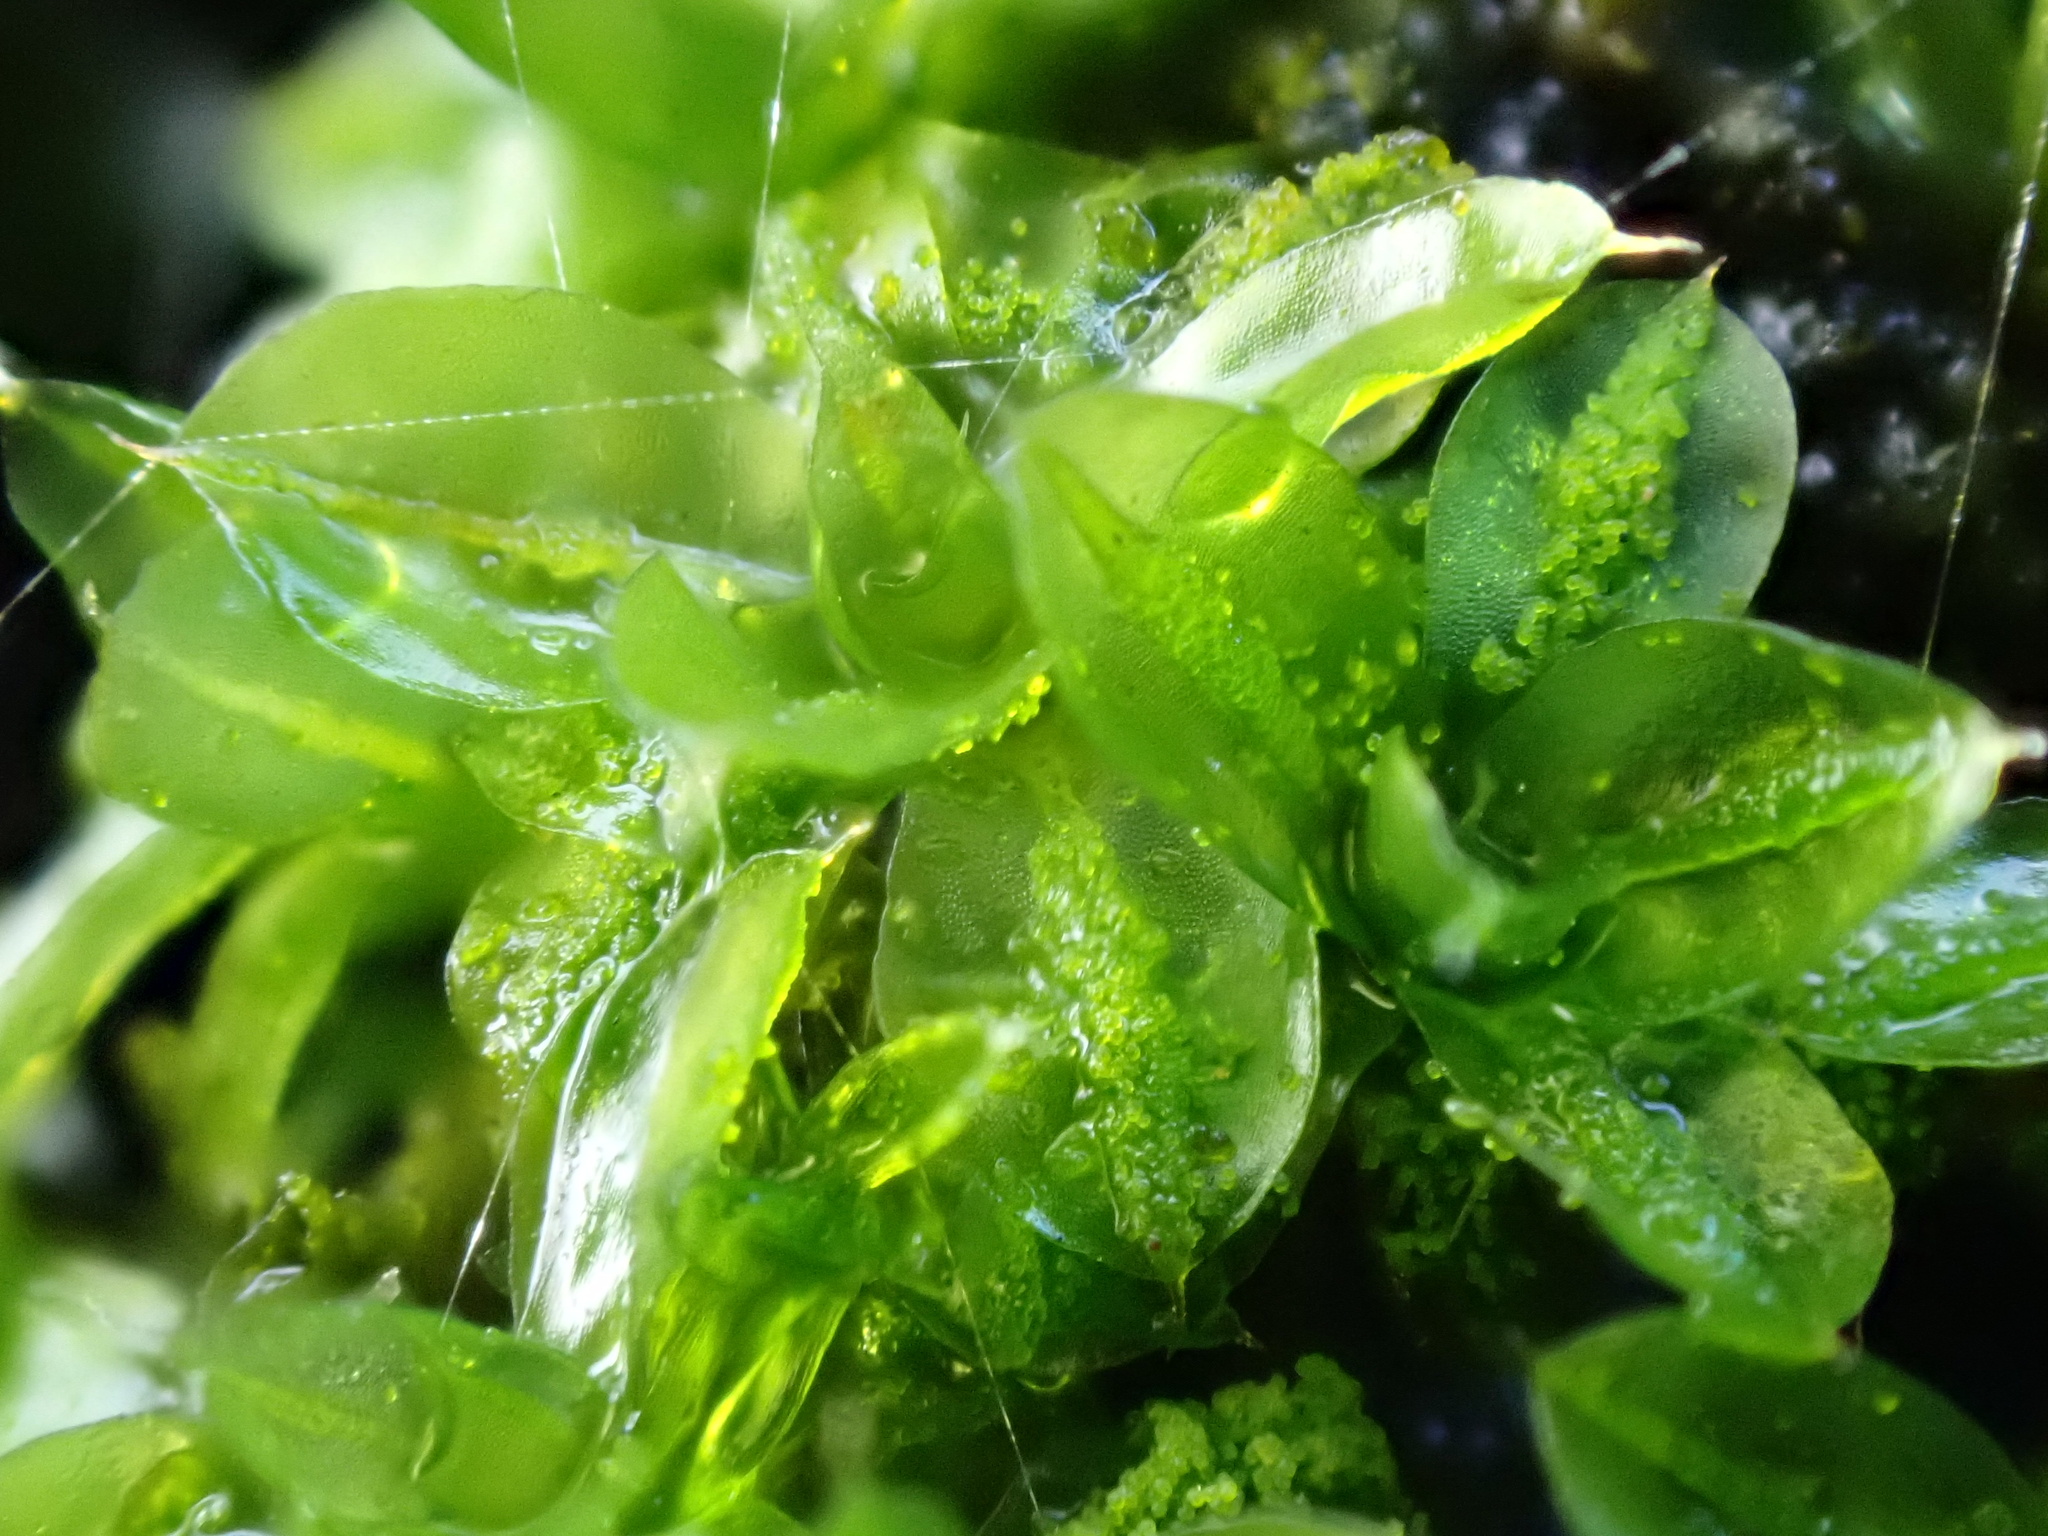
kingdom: Plantae
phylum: Bryophyta
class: Bryopsida
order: Pottiales
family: Pottiaceae
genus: Syntrichia
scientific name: Syntrichia papillosa
